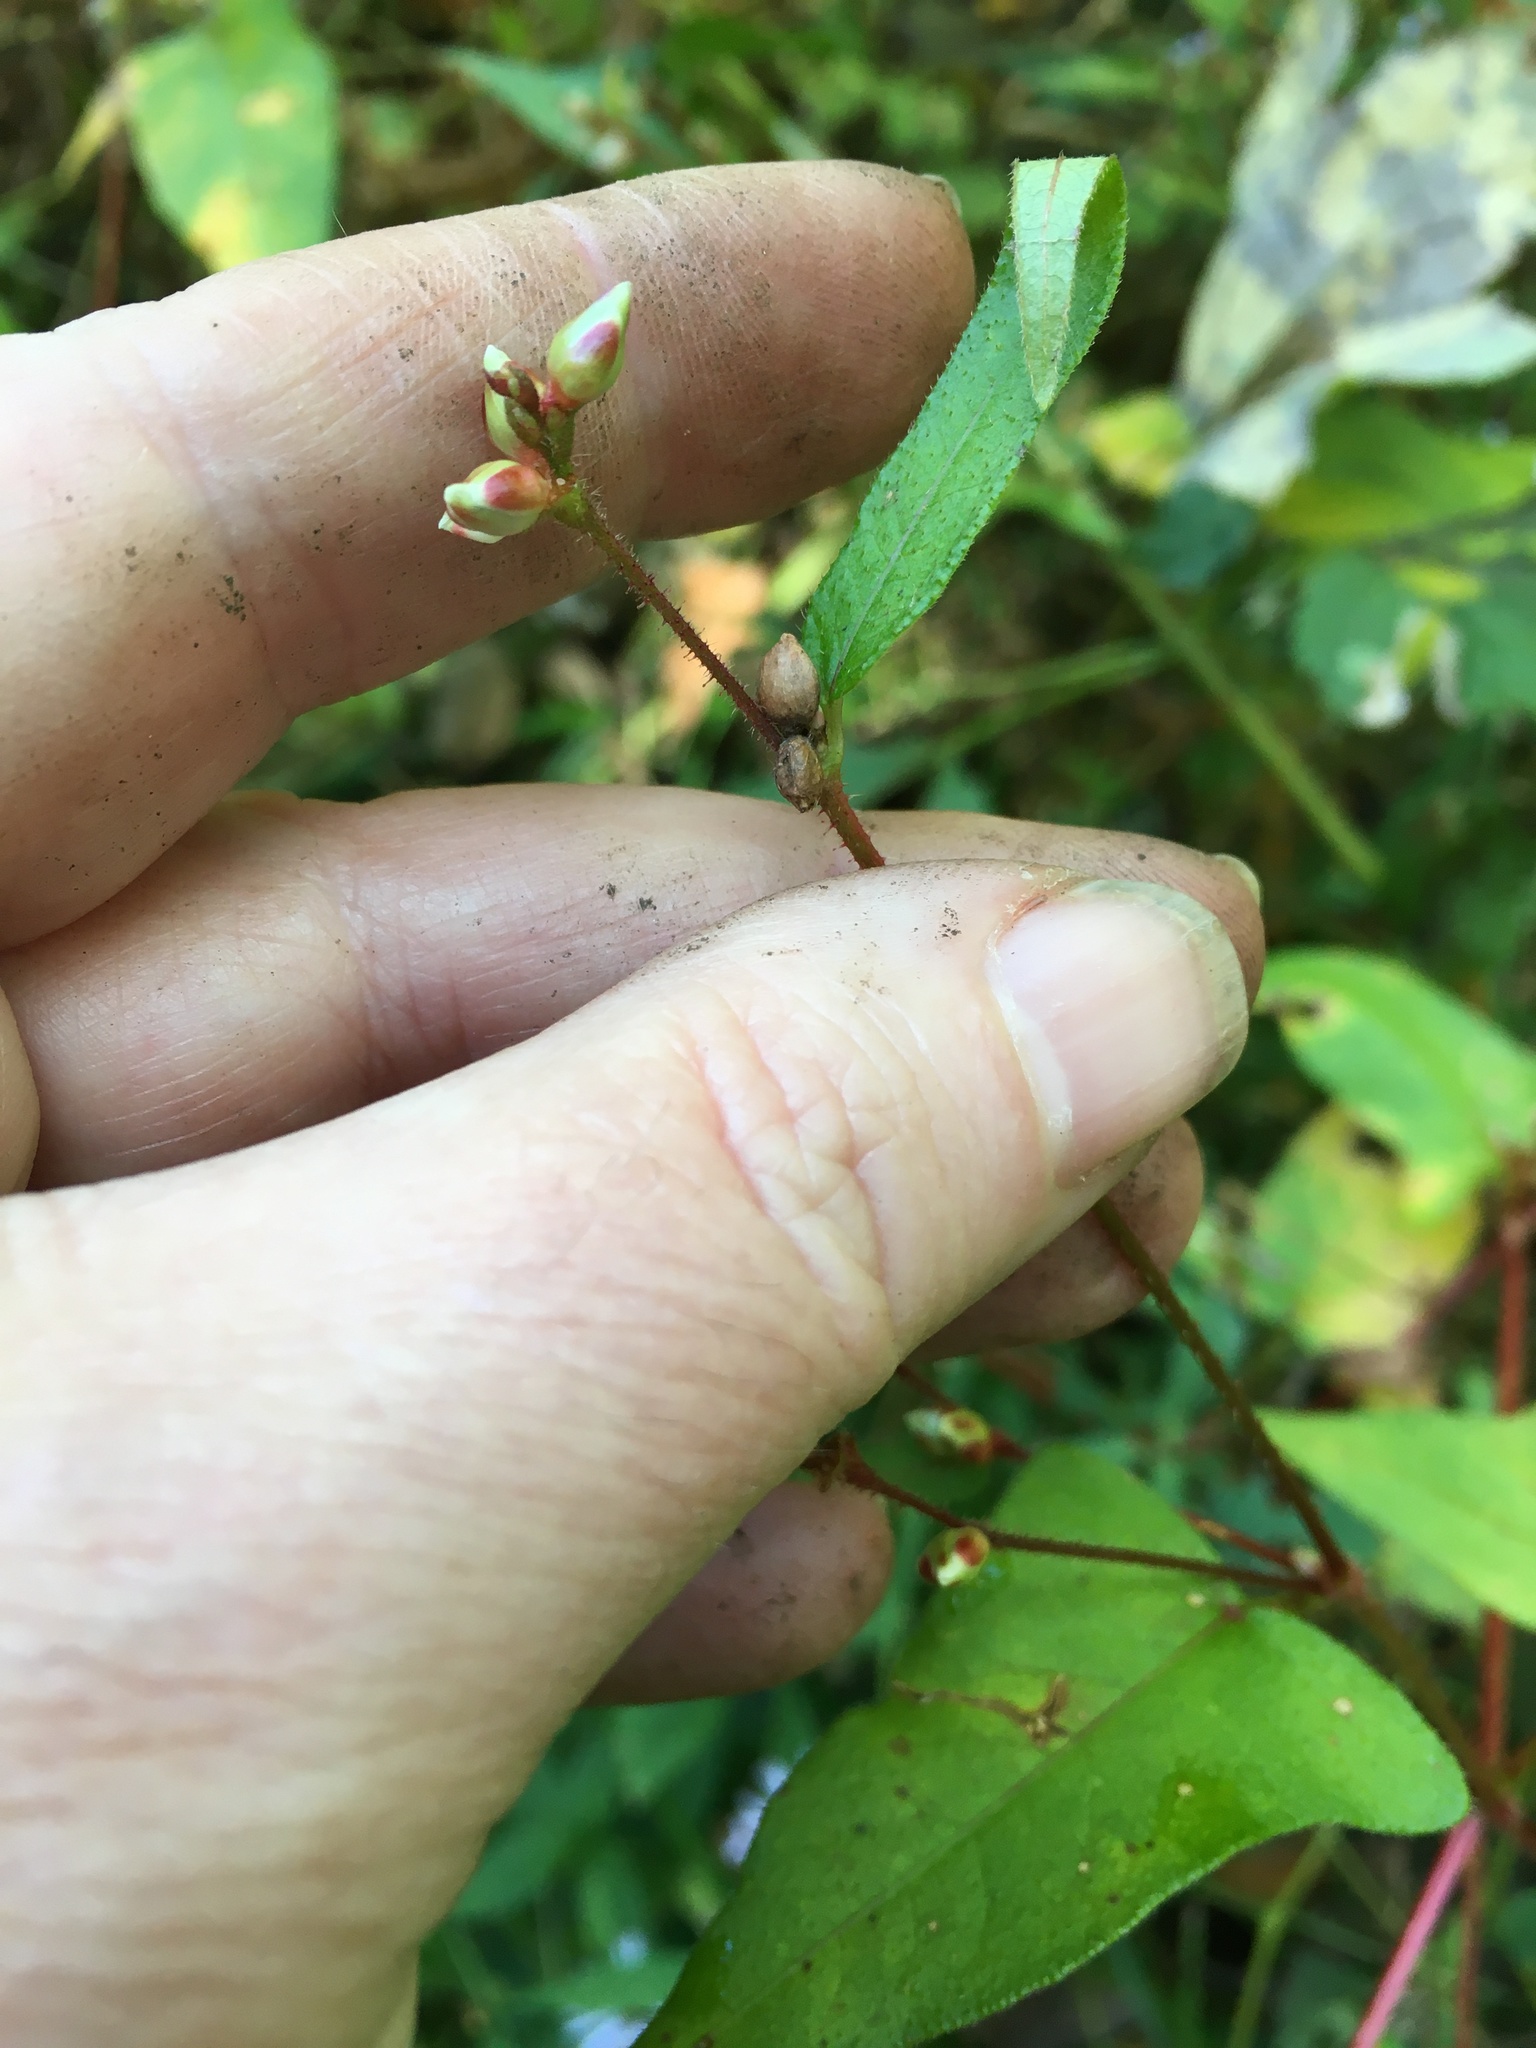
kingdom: Plantae
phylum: Tracheophyta
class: Magnoliopsida
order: Caryophyllales
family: Polygonaceae
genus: Persicaria
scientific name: Persicaria arifolia
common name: Halberd-leaved tear-thumb
